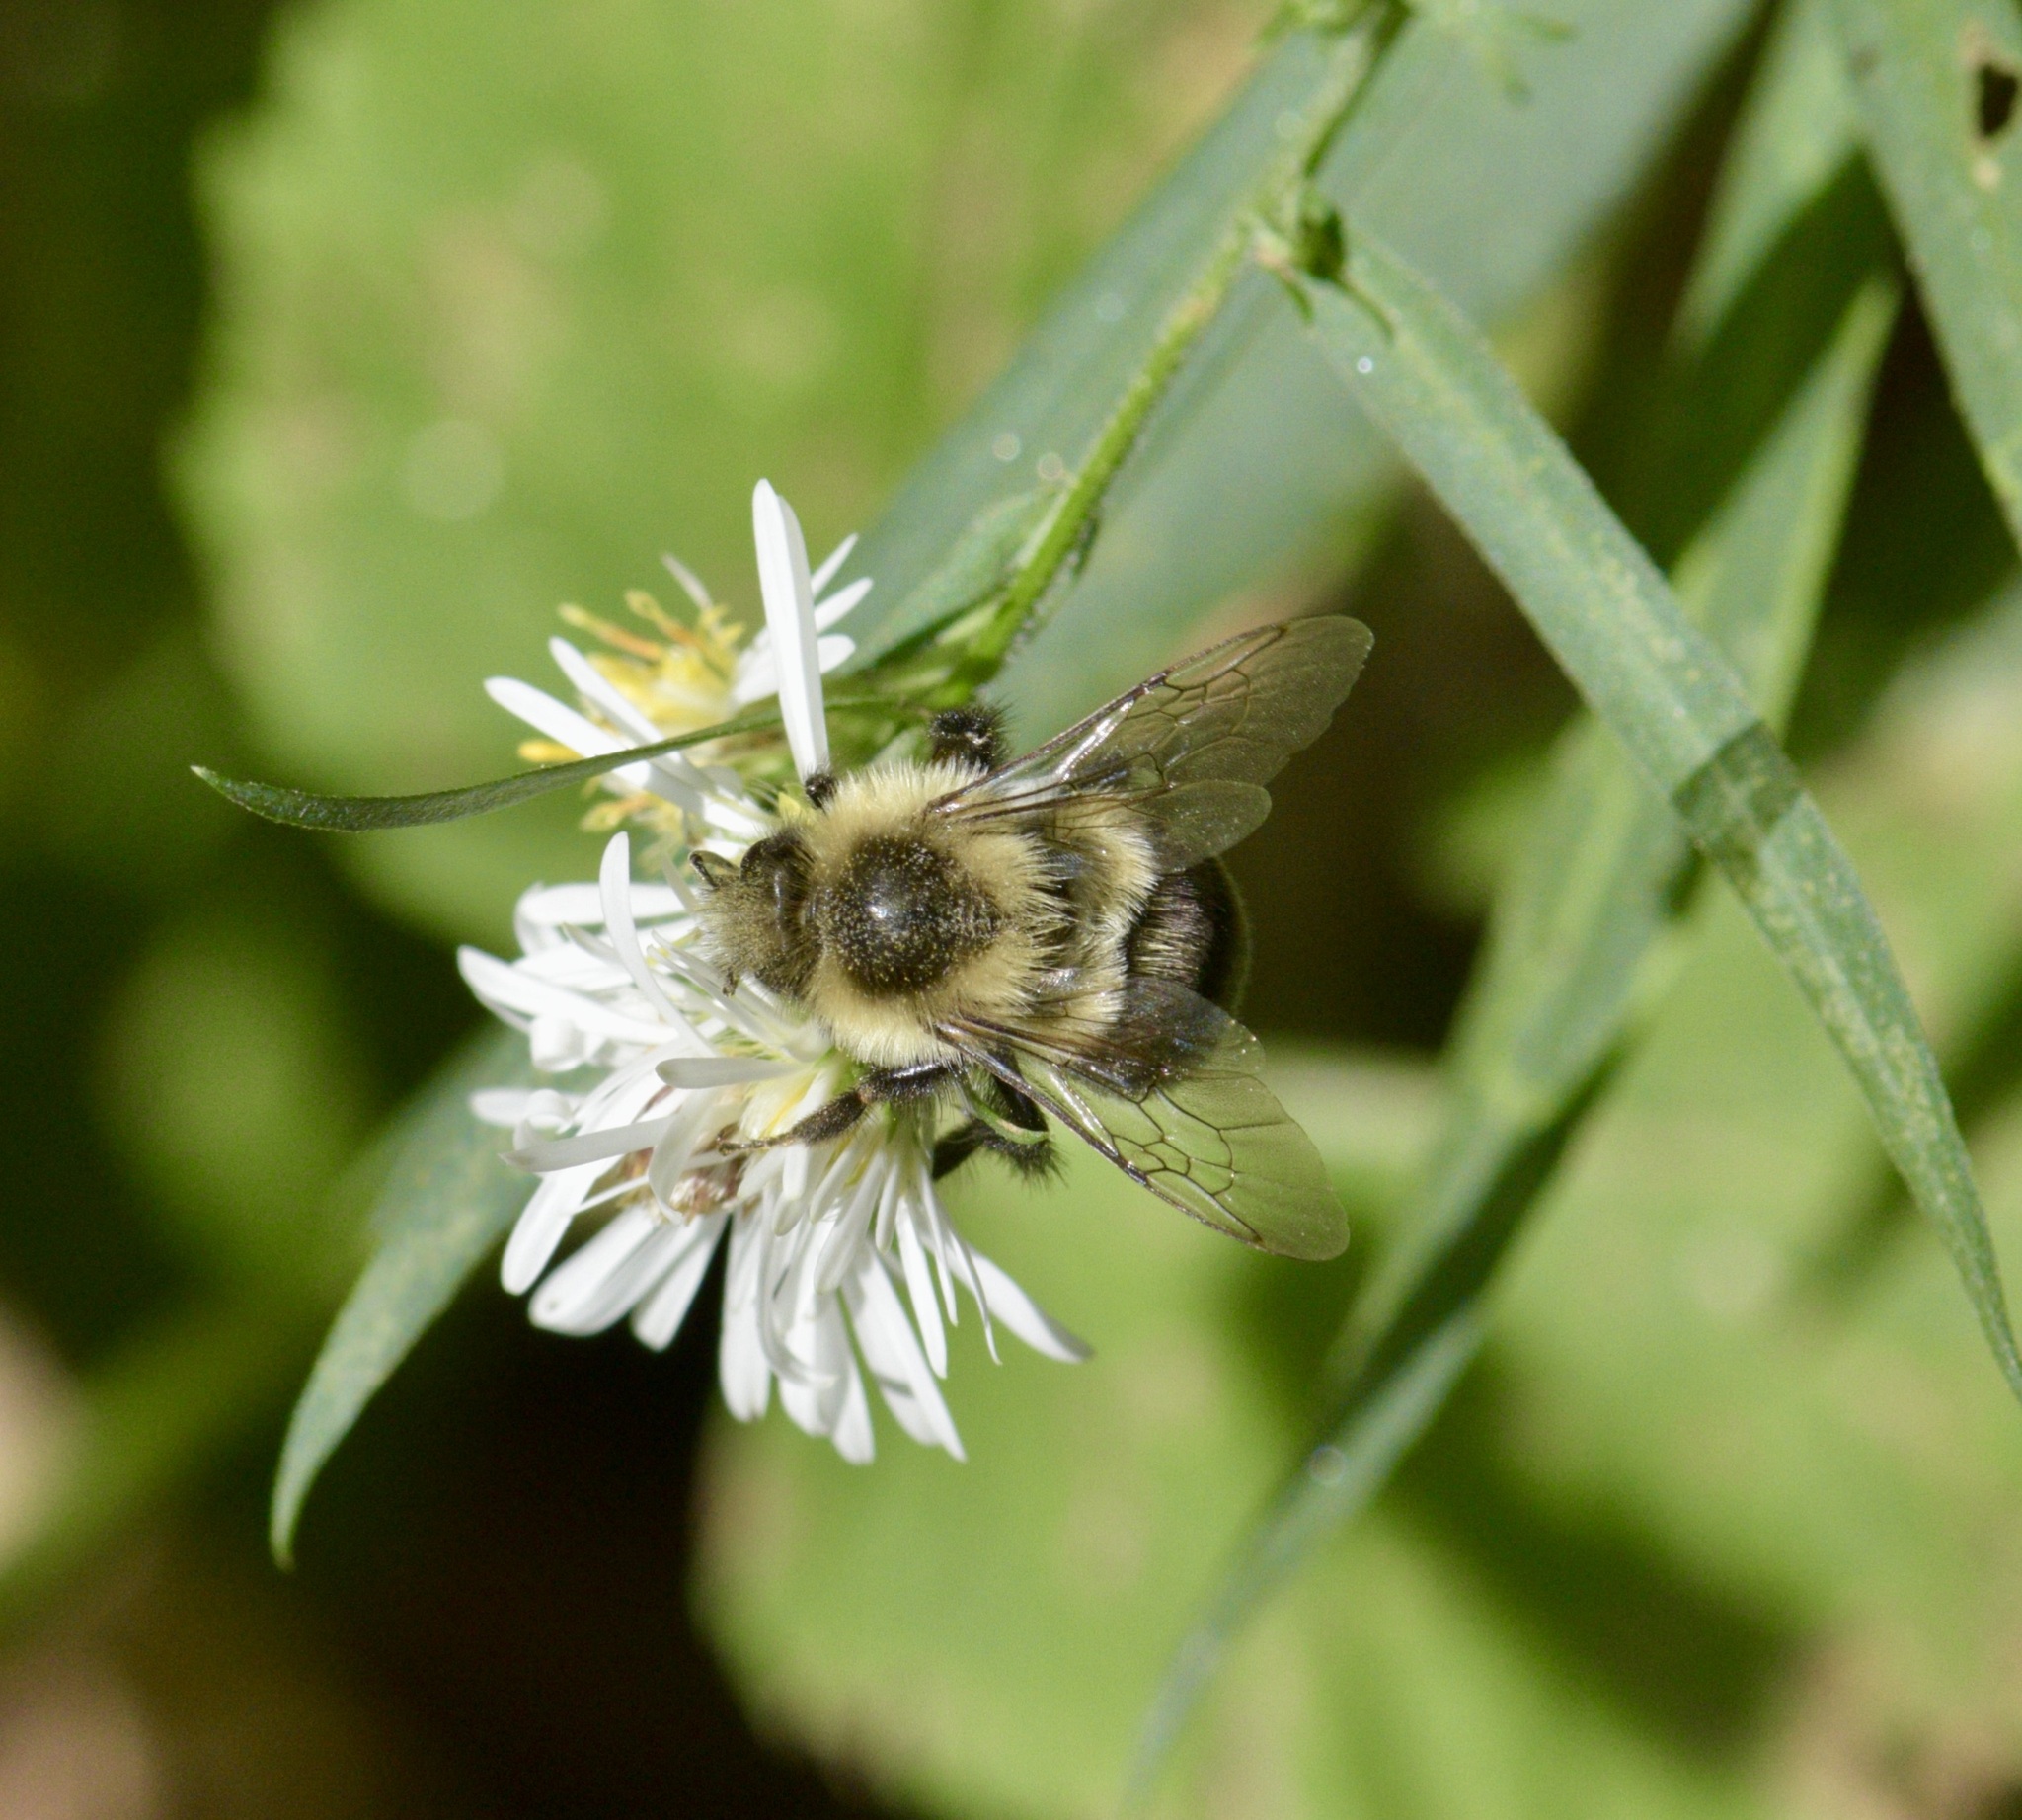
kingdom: Animalia
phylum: Arthropoda
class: Insecta
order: Hymenoptera
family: Apidae
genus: Bombus
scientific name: Bombus impatiens
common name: Common eastern bumble bee
